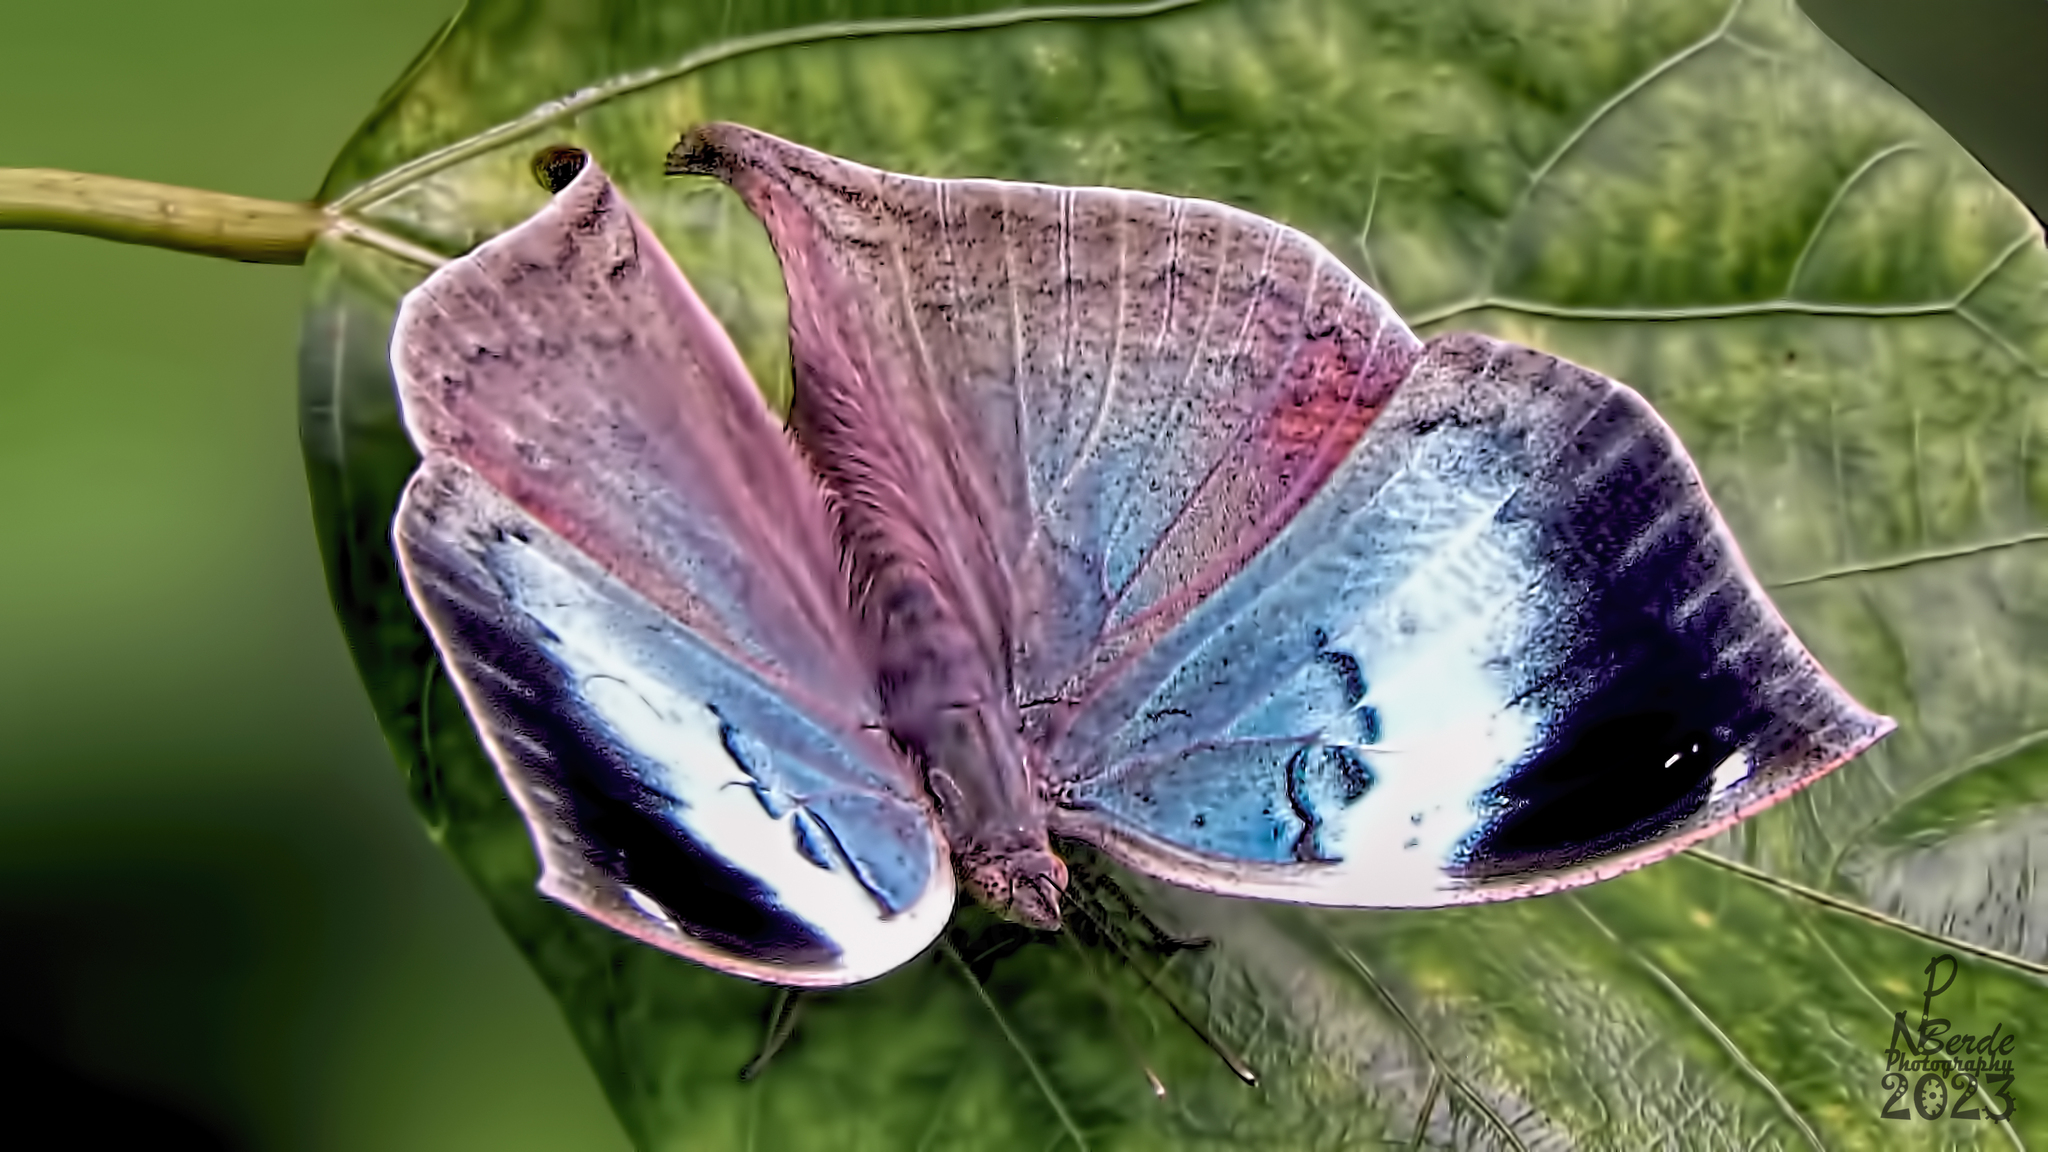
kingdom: Animalia
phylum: Arthropoda
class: Insecta
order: Lepidoptera
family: Nymphalidae
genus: Kallima
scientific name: Kallima horsfieldii
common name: Sahyadri blue oakleaf
